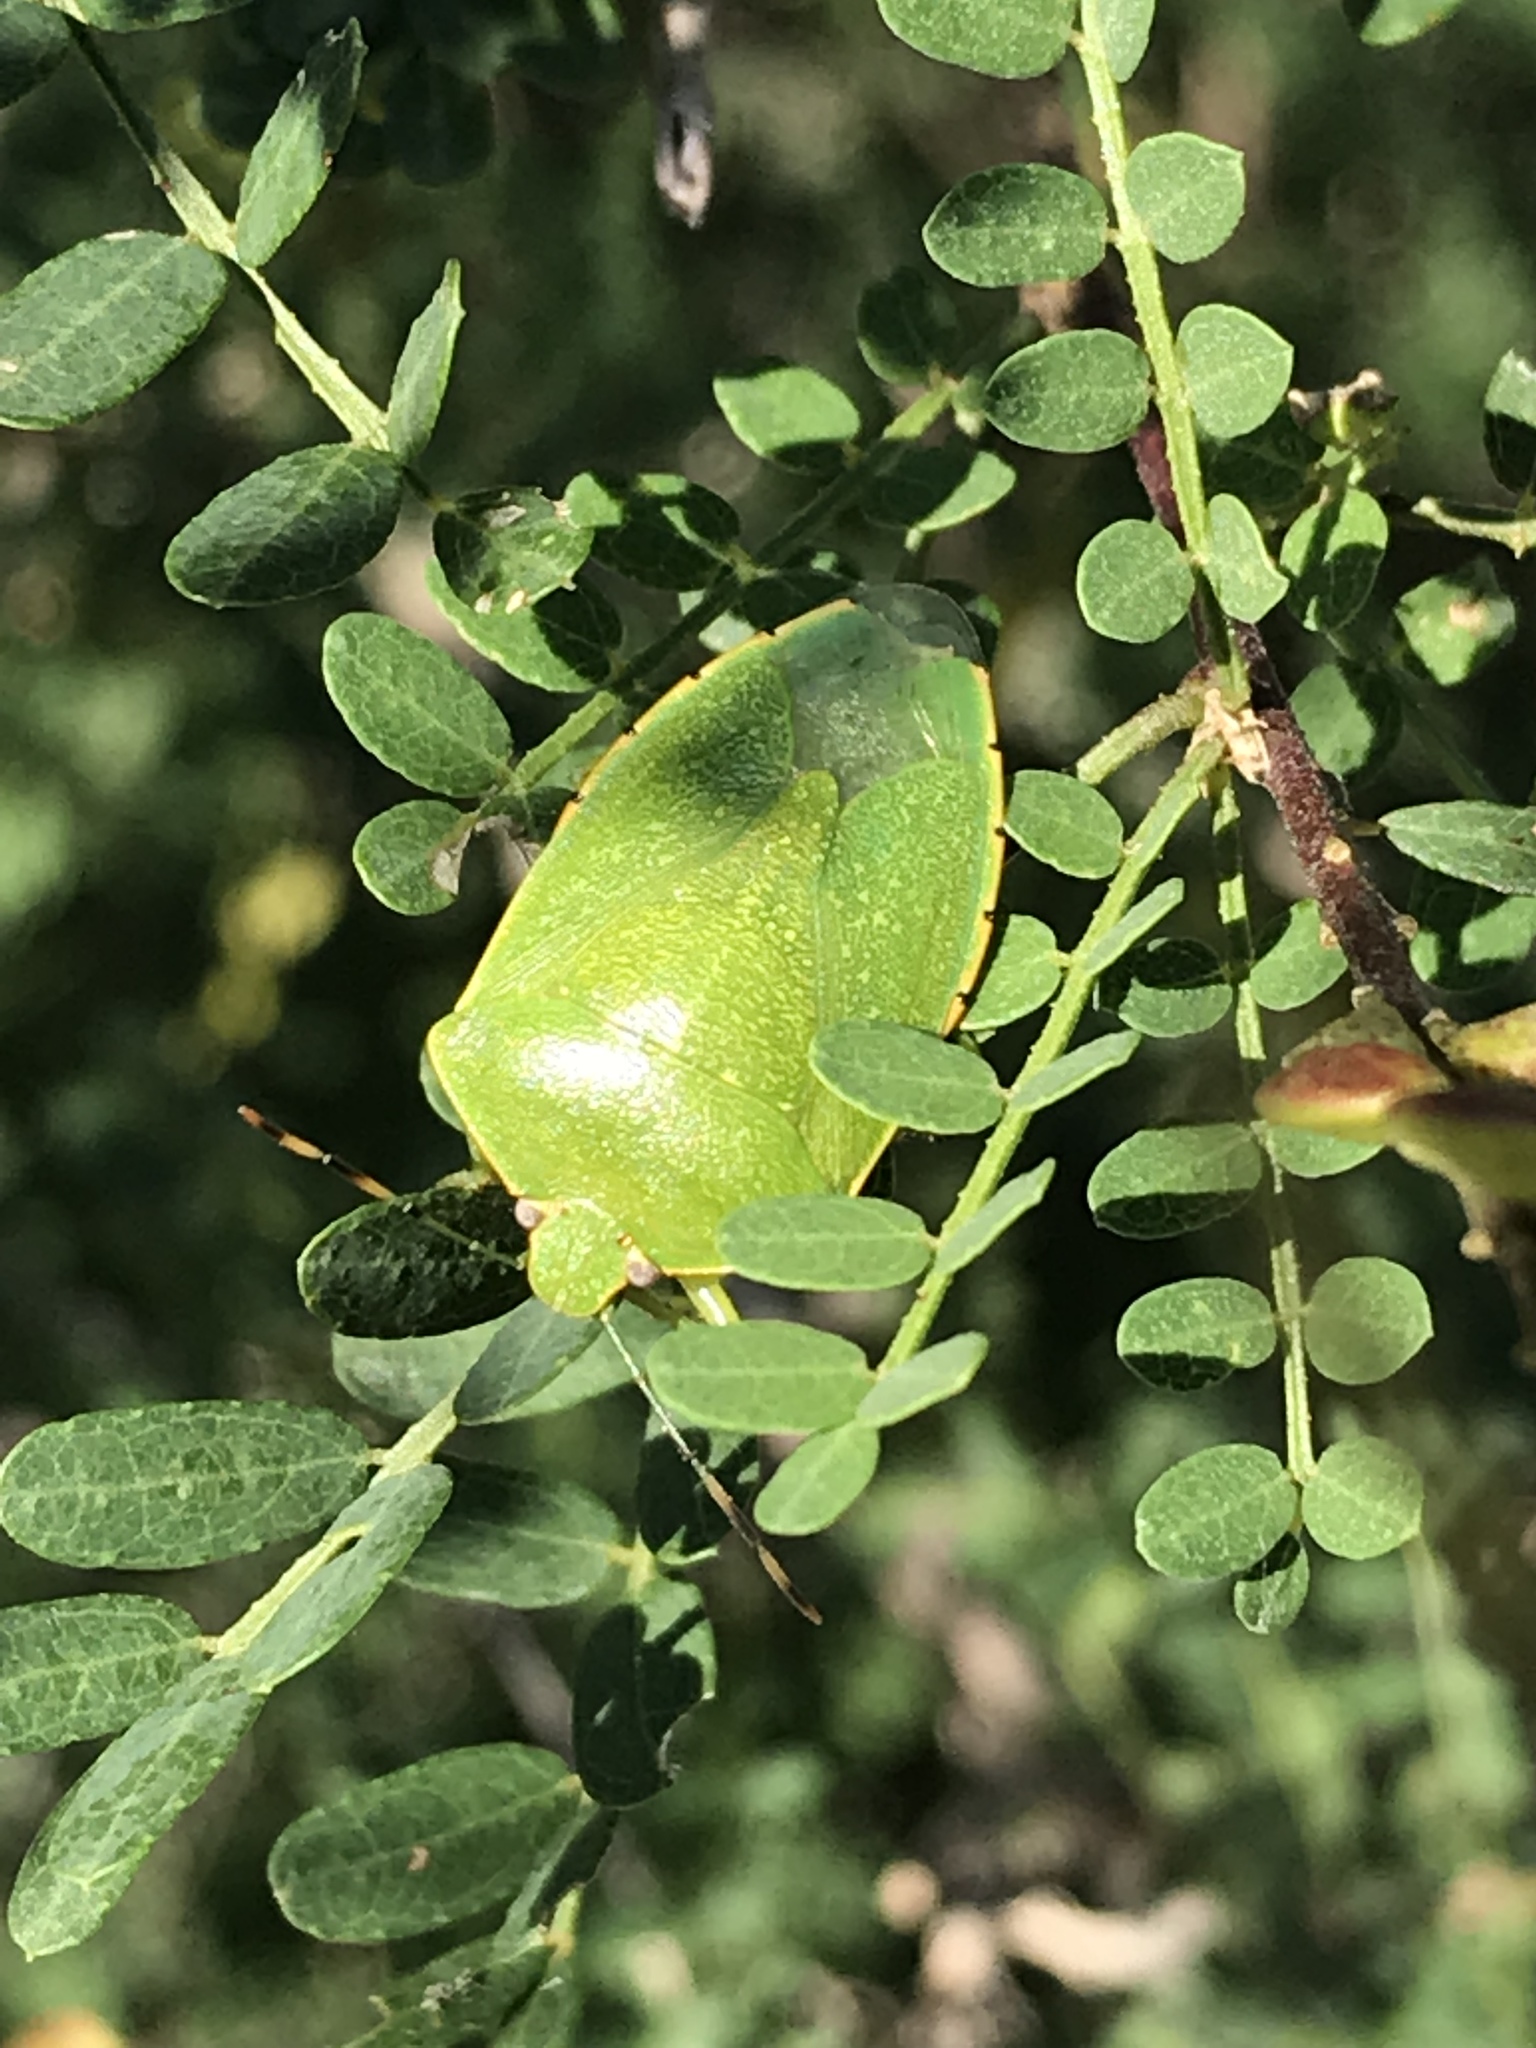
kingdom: Animalia
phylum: Arthropoda
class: Insecta
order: Hemiptera
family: Pentatomidae
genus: Chinavia
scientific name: Chinavia hilaris
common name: Green stink bug
